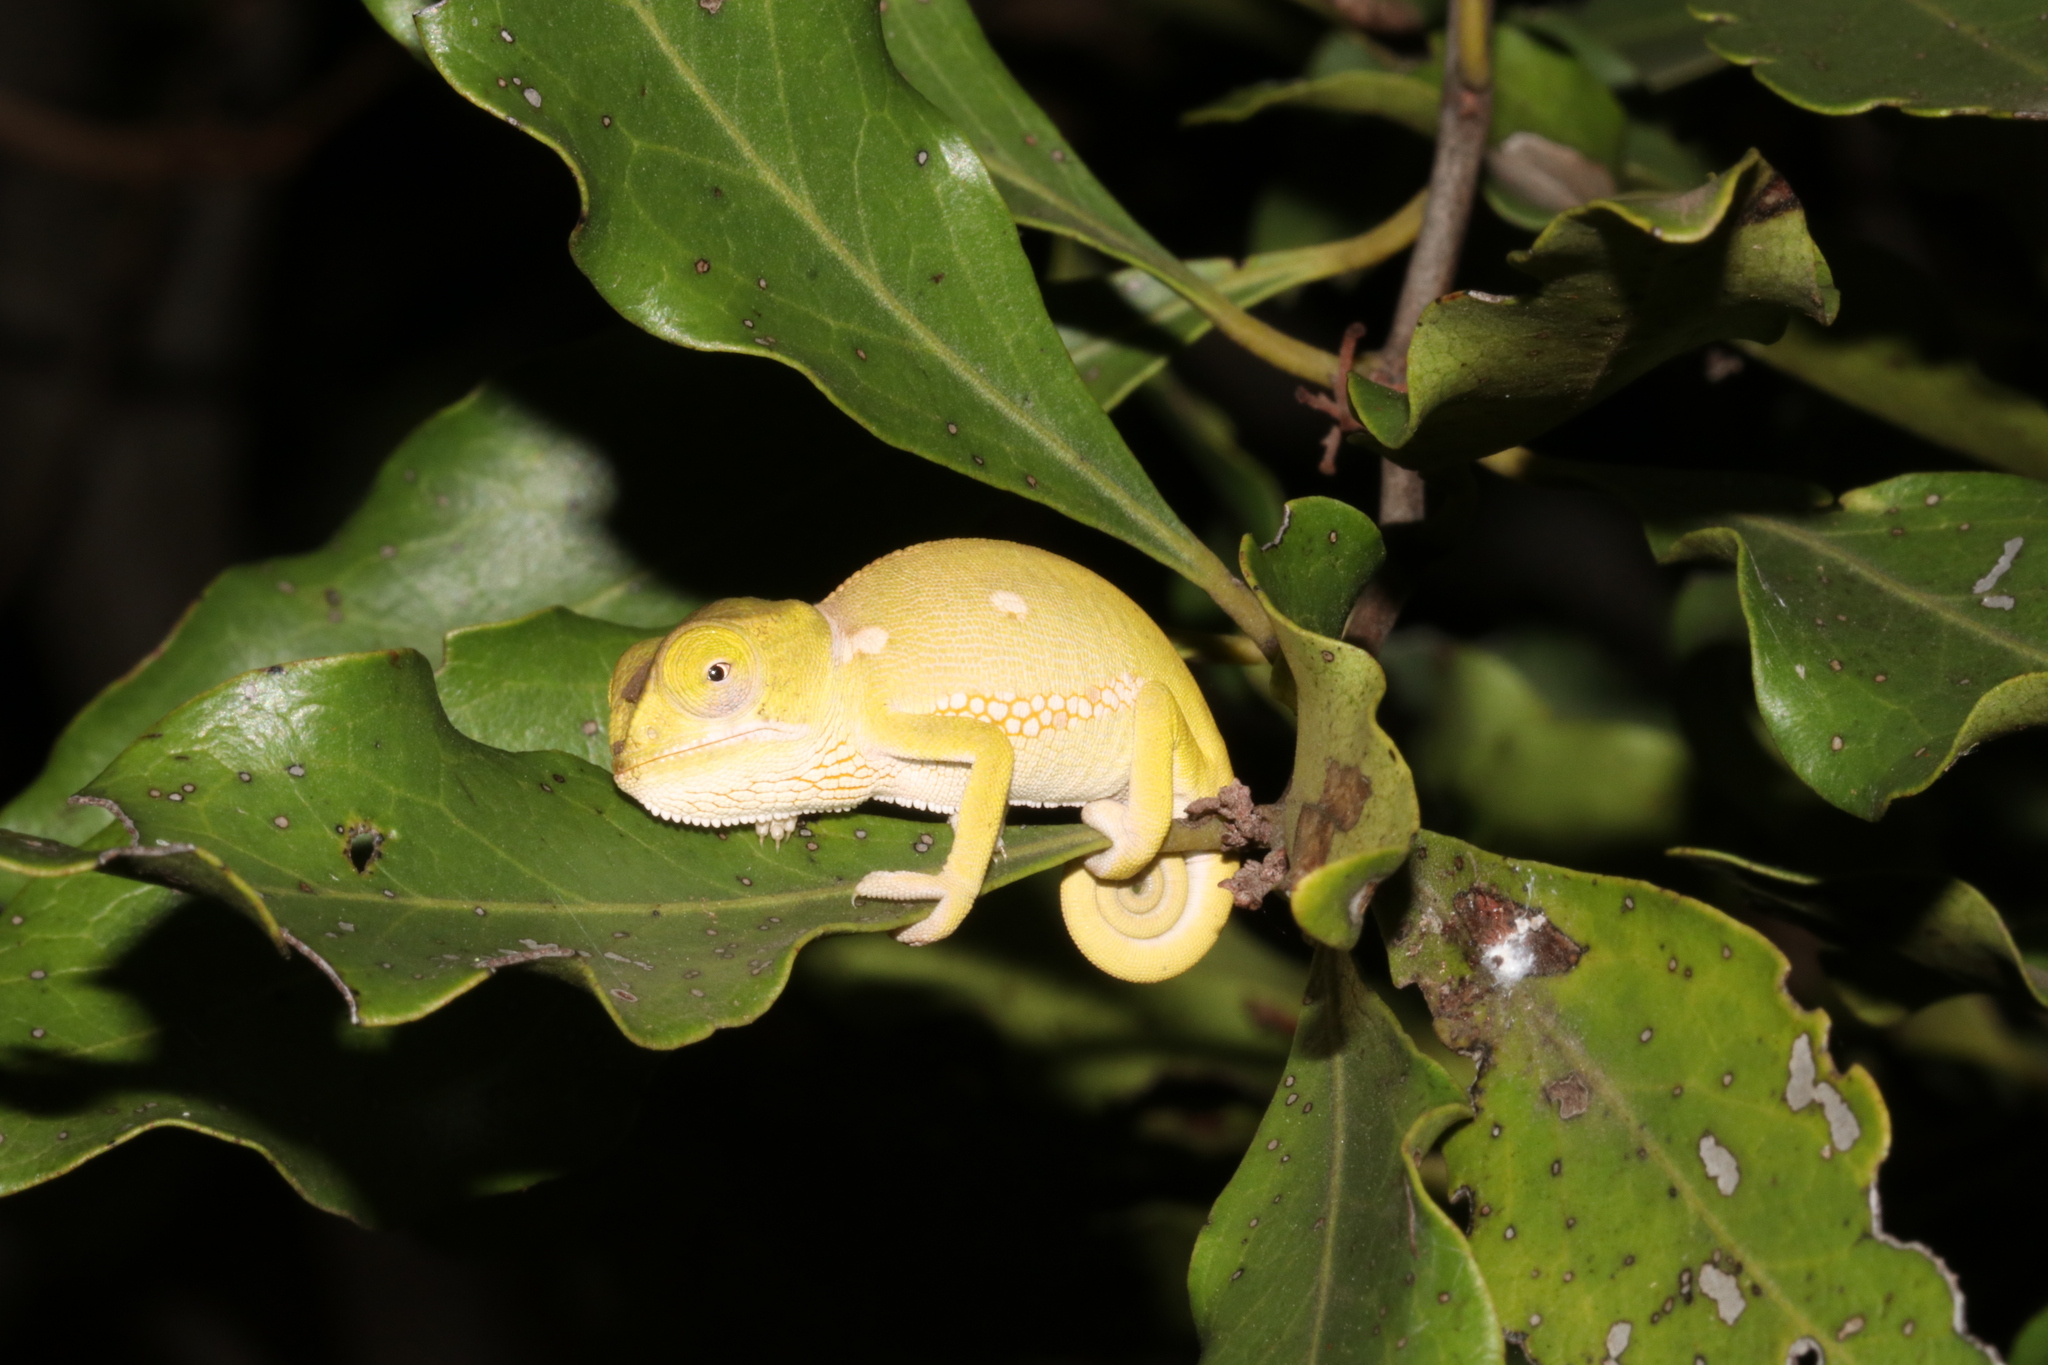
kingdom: Animalia
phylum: Chordata
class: Squamata
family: Chamaeleonidae
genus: Chamaeleo
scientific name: Chamaeleo dilepis
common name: Flapneck chameleon
